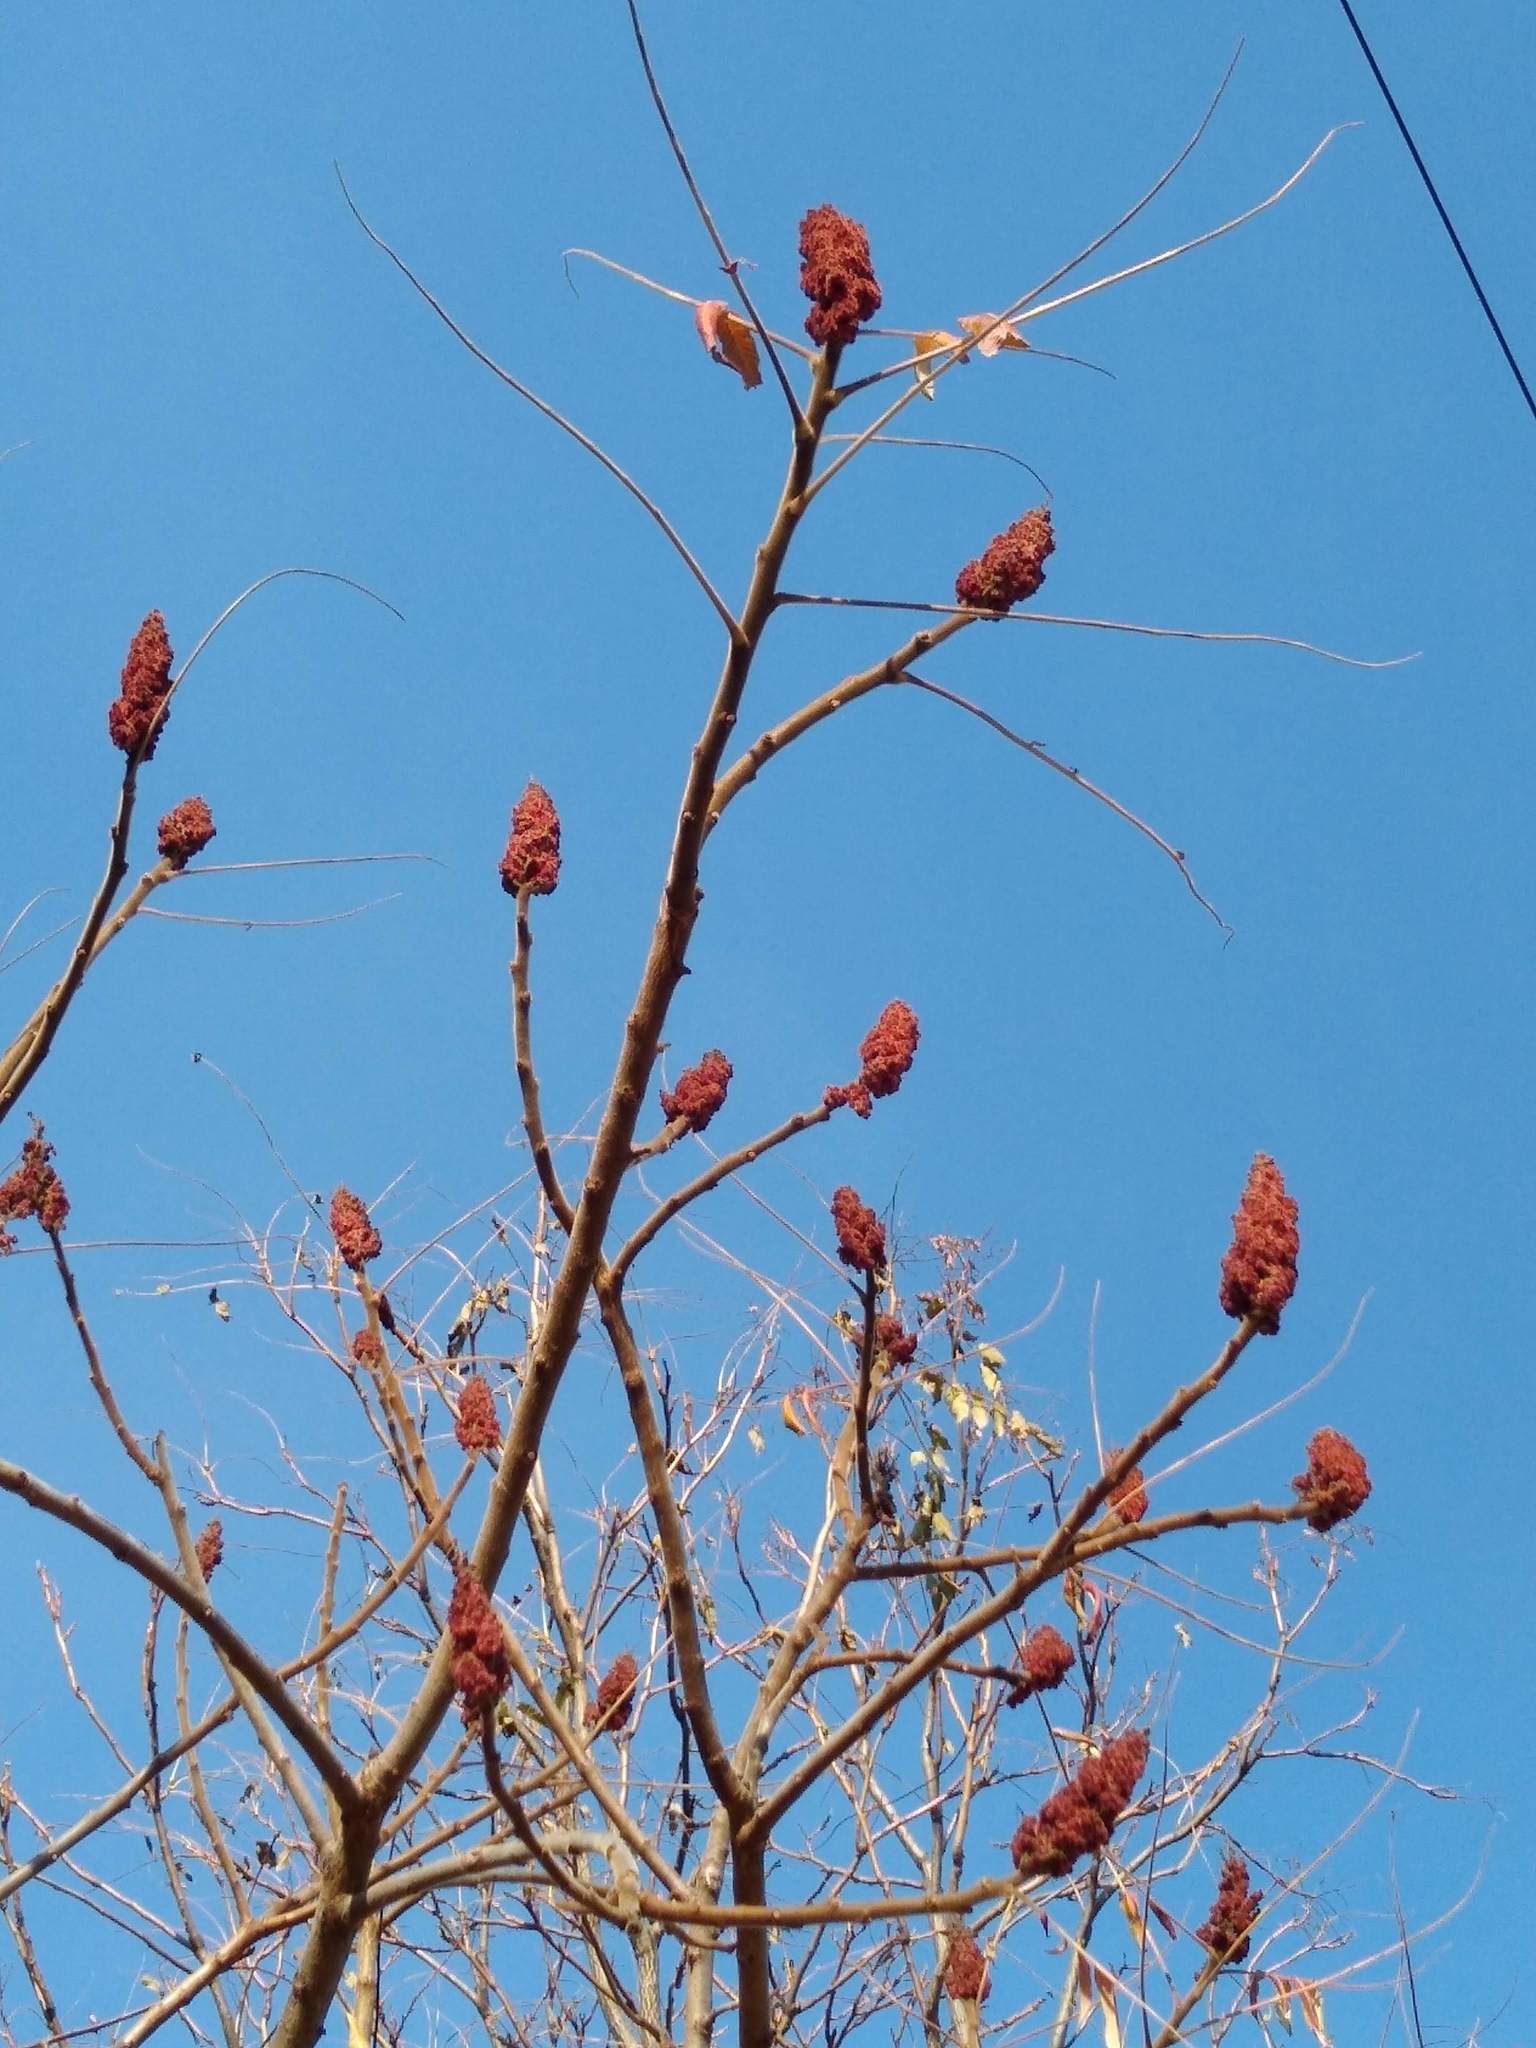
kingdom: Plantae
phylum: Tracheophyta
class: Magnoliopsida
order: Sapindales
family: Anacardiaceae
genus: Rhus
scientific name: Rhus typhina
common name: Staghorn sumac
